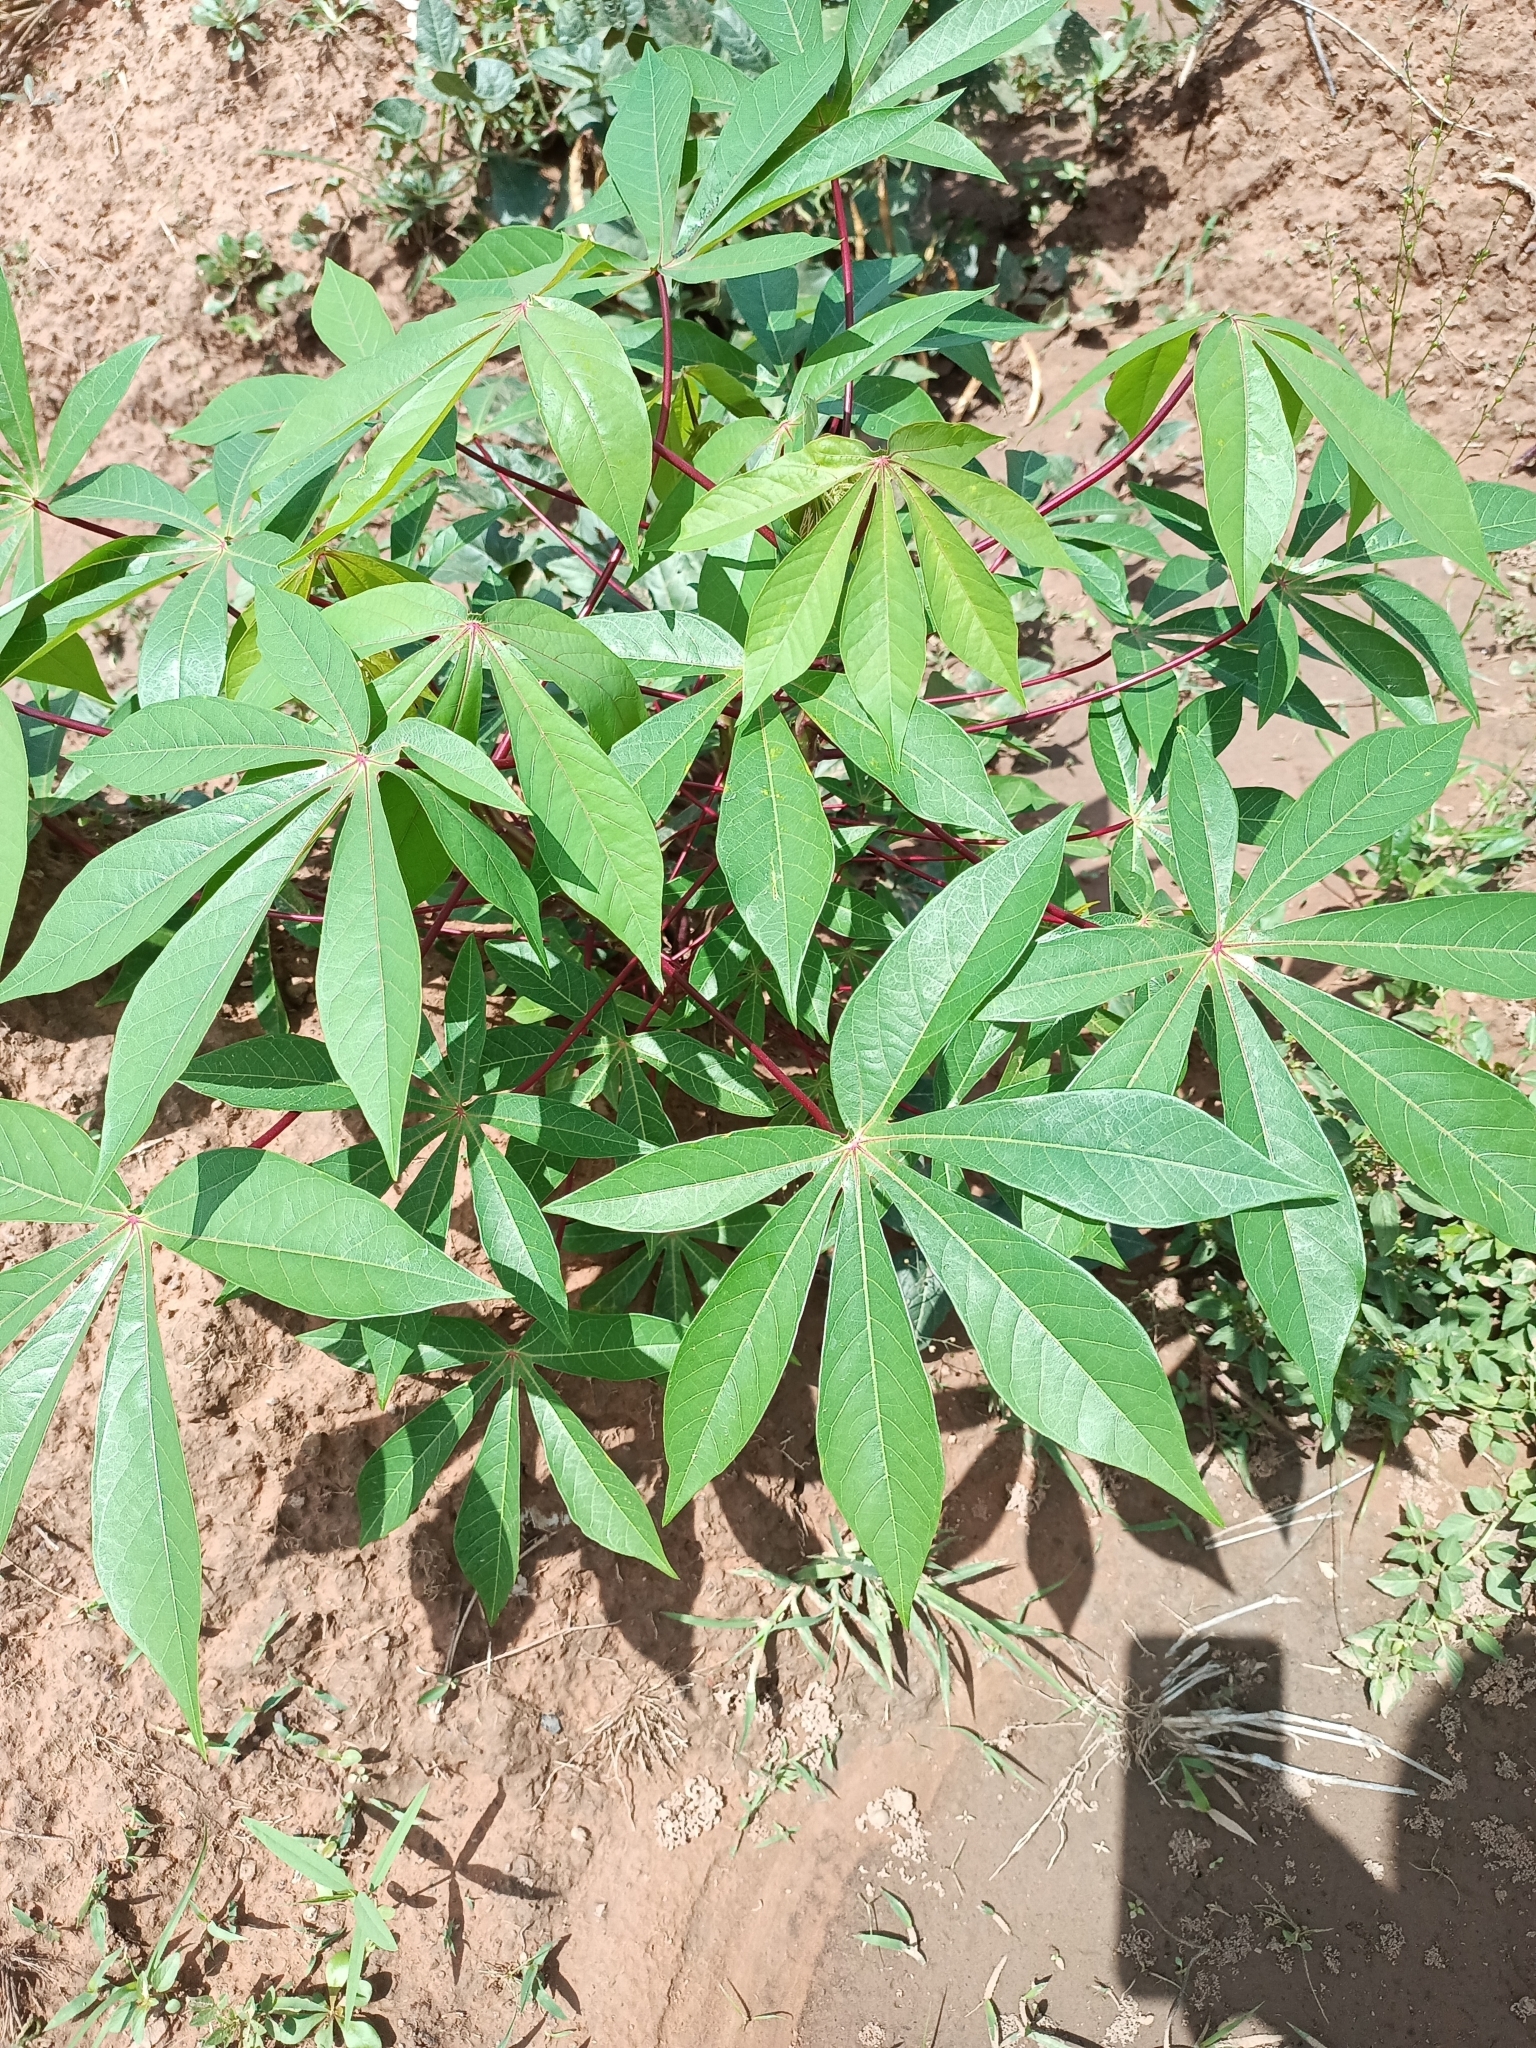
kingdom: Plantae
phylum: Tracheophyta
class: Magnoliopsida
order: Malpighiales
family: Euphorbiaceae
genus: Manihot
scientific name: Manihot esculenta
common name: Cassava
